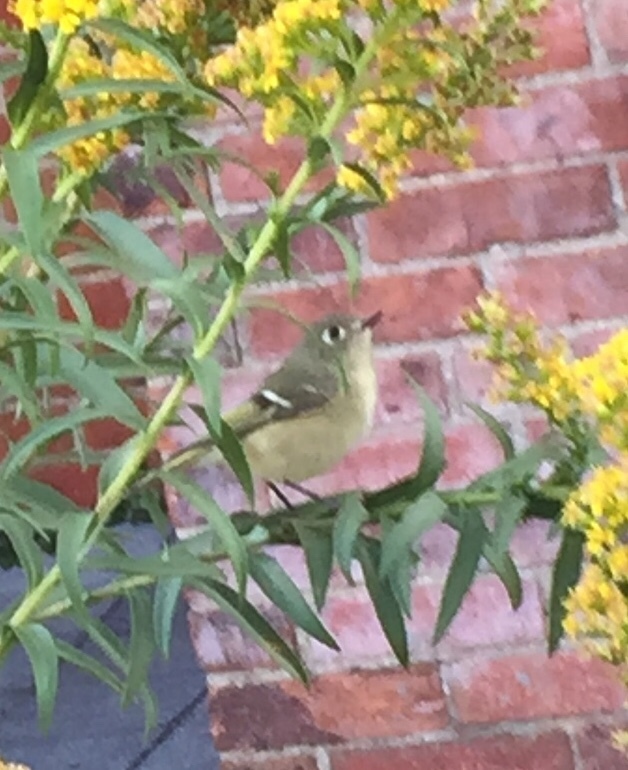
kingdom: Animalia
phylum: Chordata
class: Aves
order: Passeriformes
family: Regulidae
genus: Regulus
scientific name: Regulus calendula
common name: Ruby-crowned kinglet
